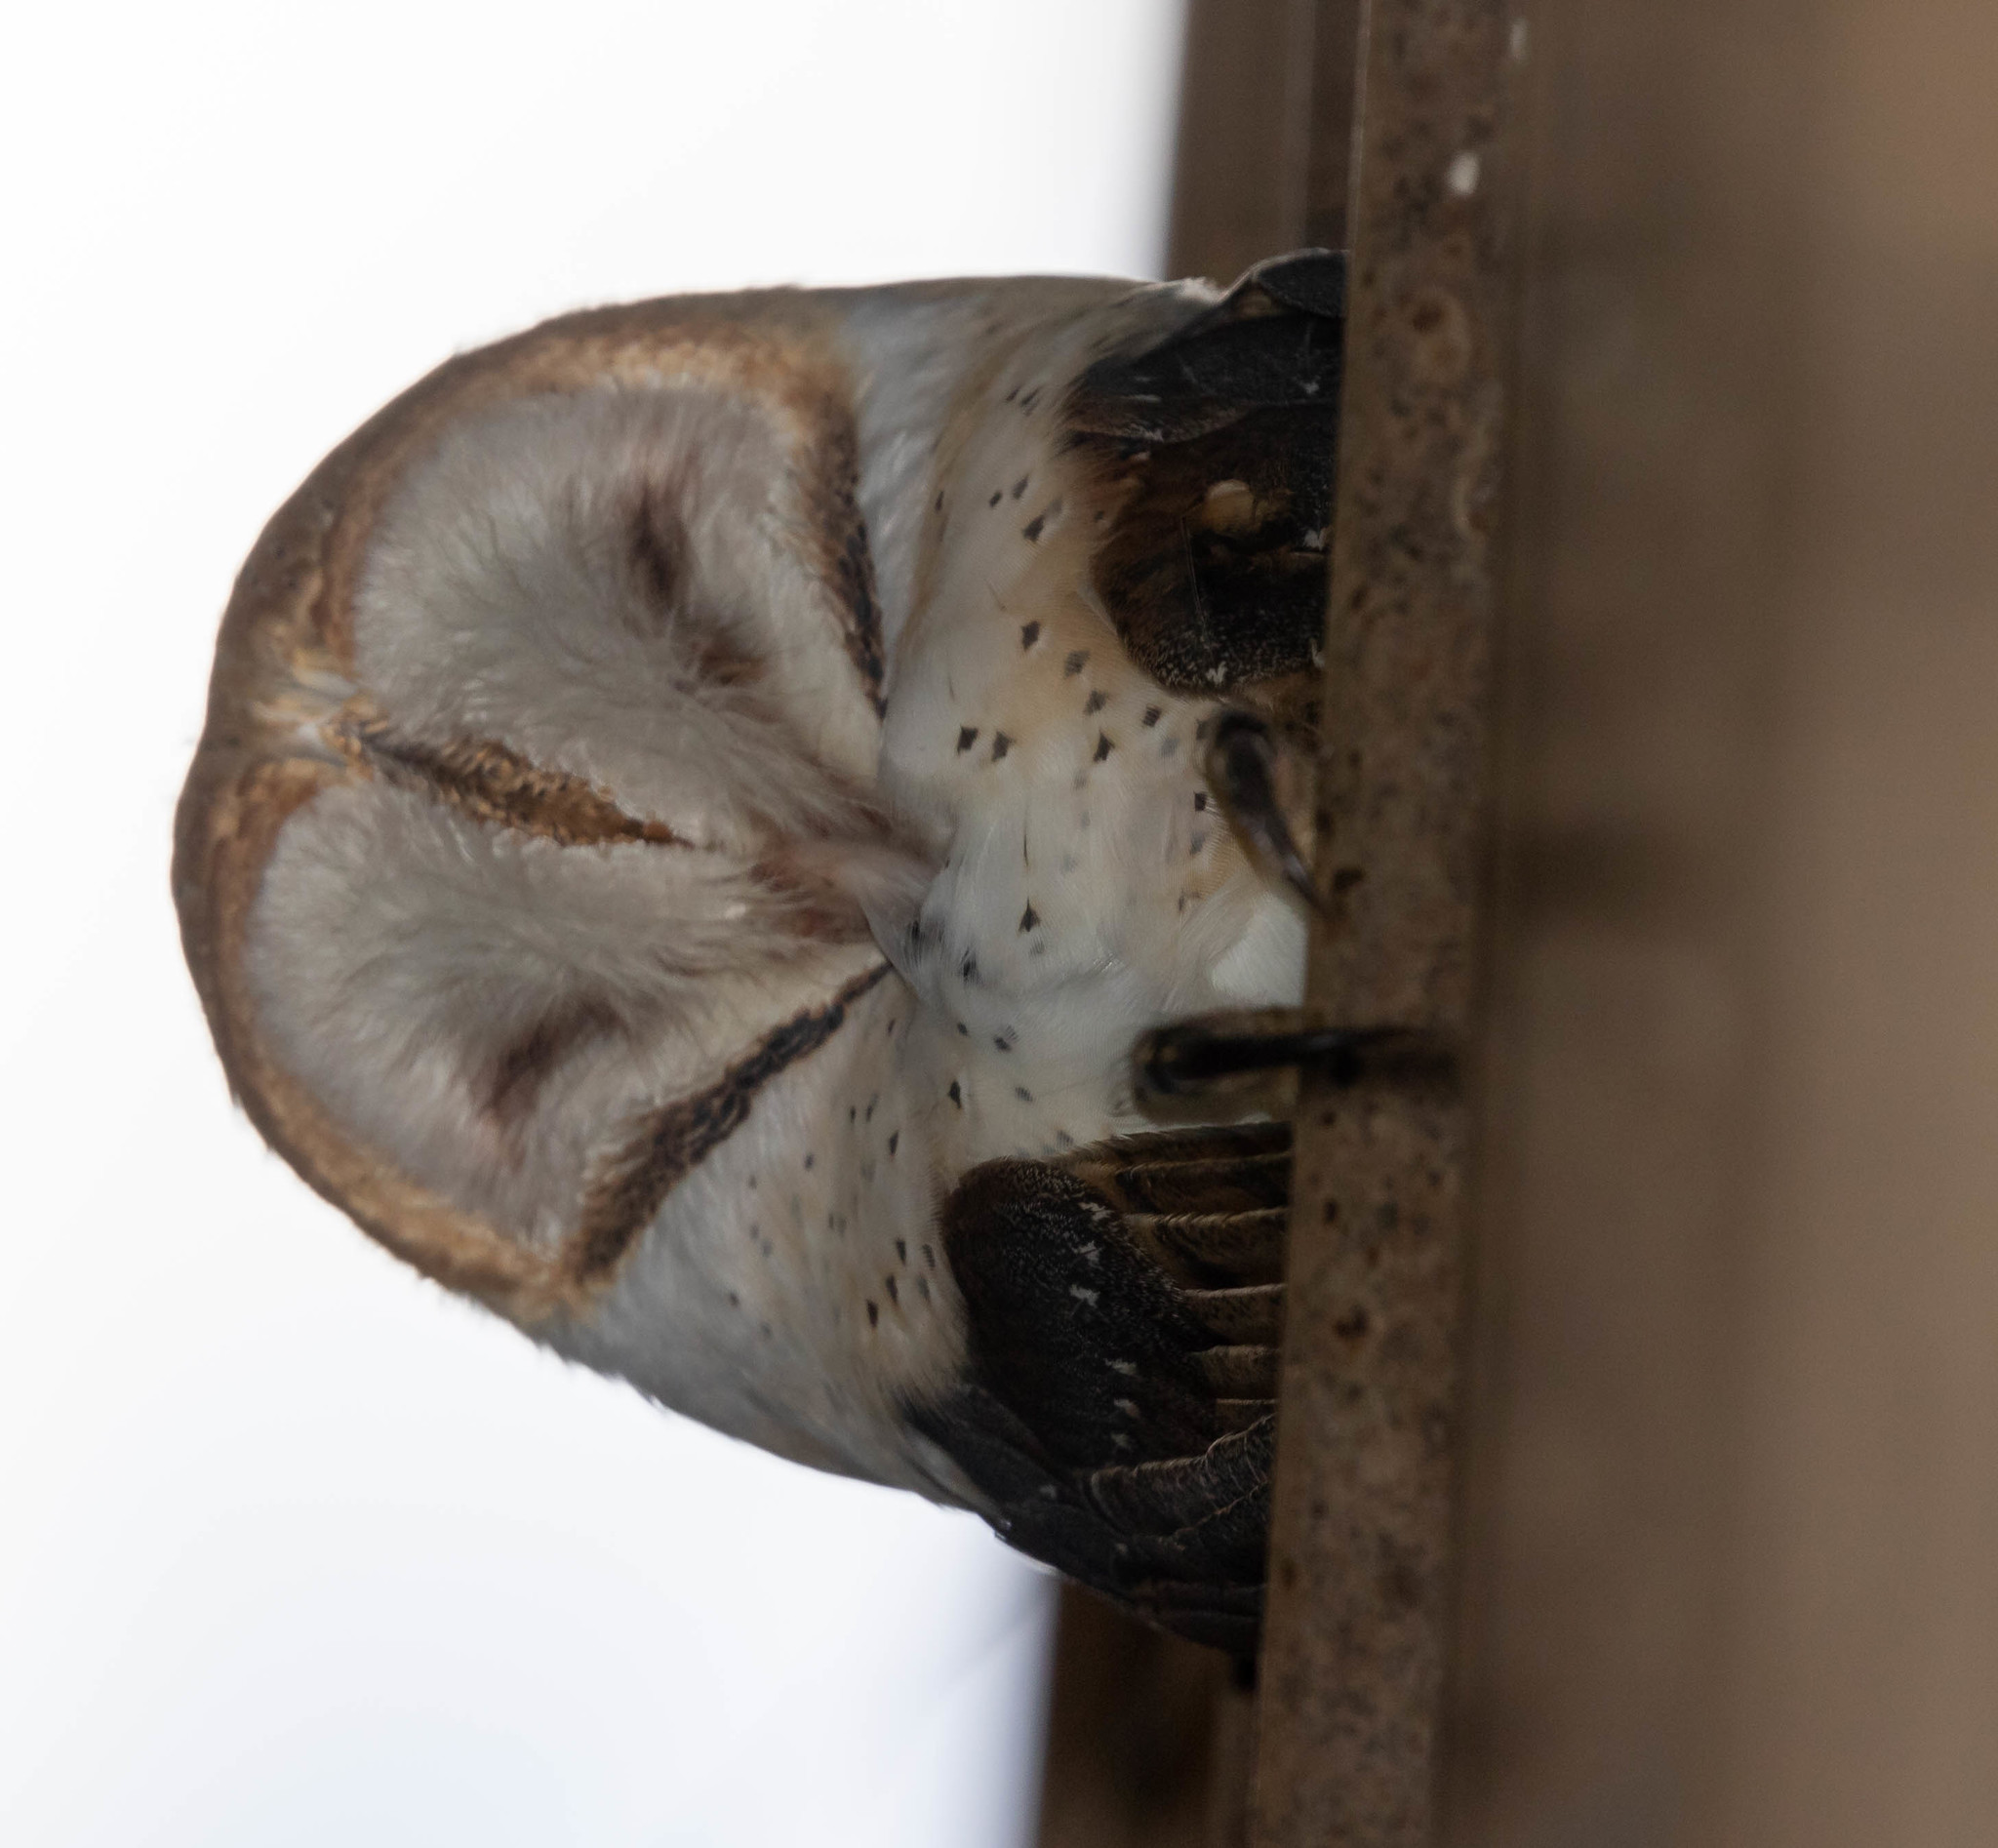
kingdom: Animalia
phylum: Chordata
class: Aves
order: Strigiformes
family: Tytonidae
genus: Tyto
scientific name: Tyto alba
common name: Barn owl
